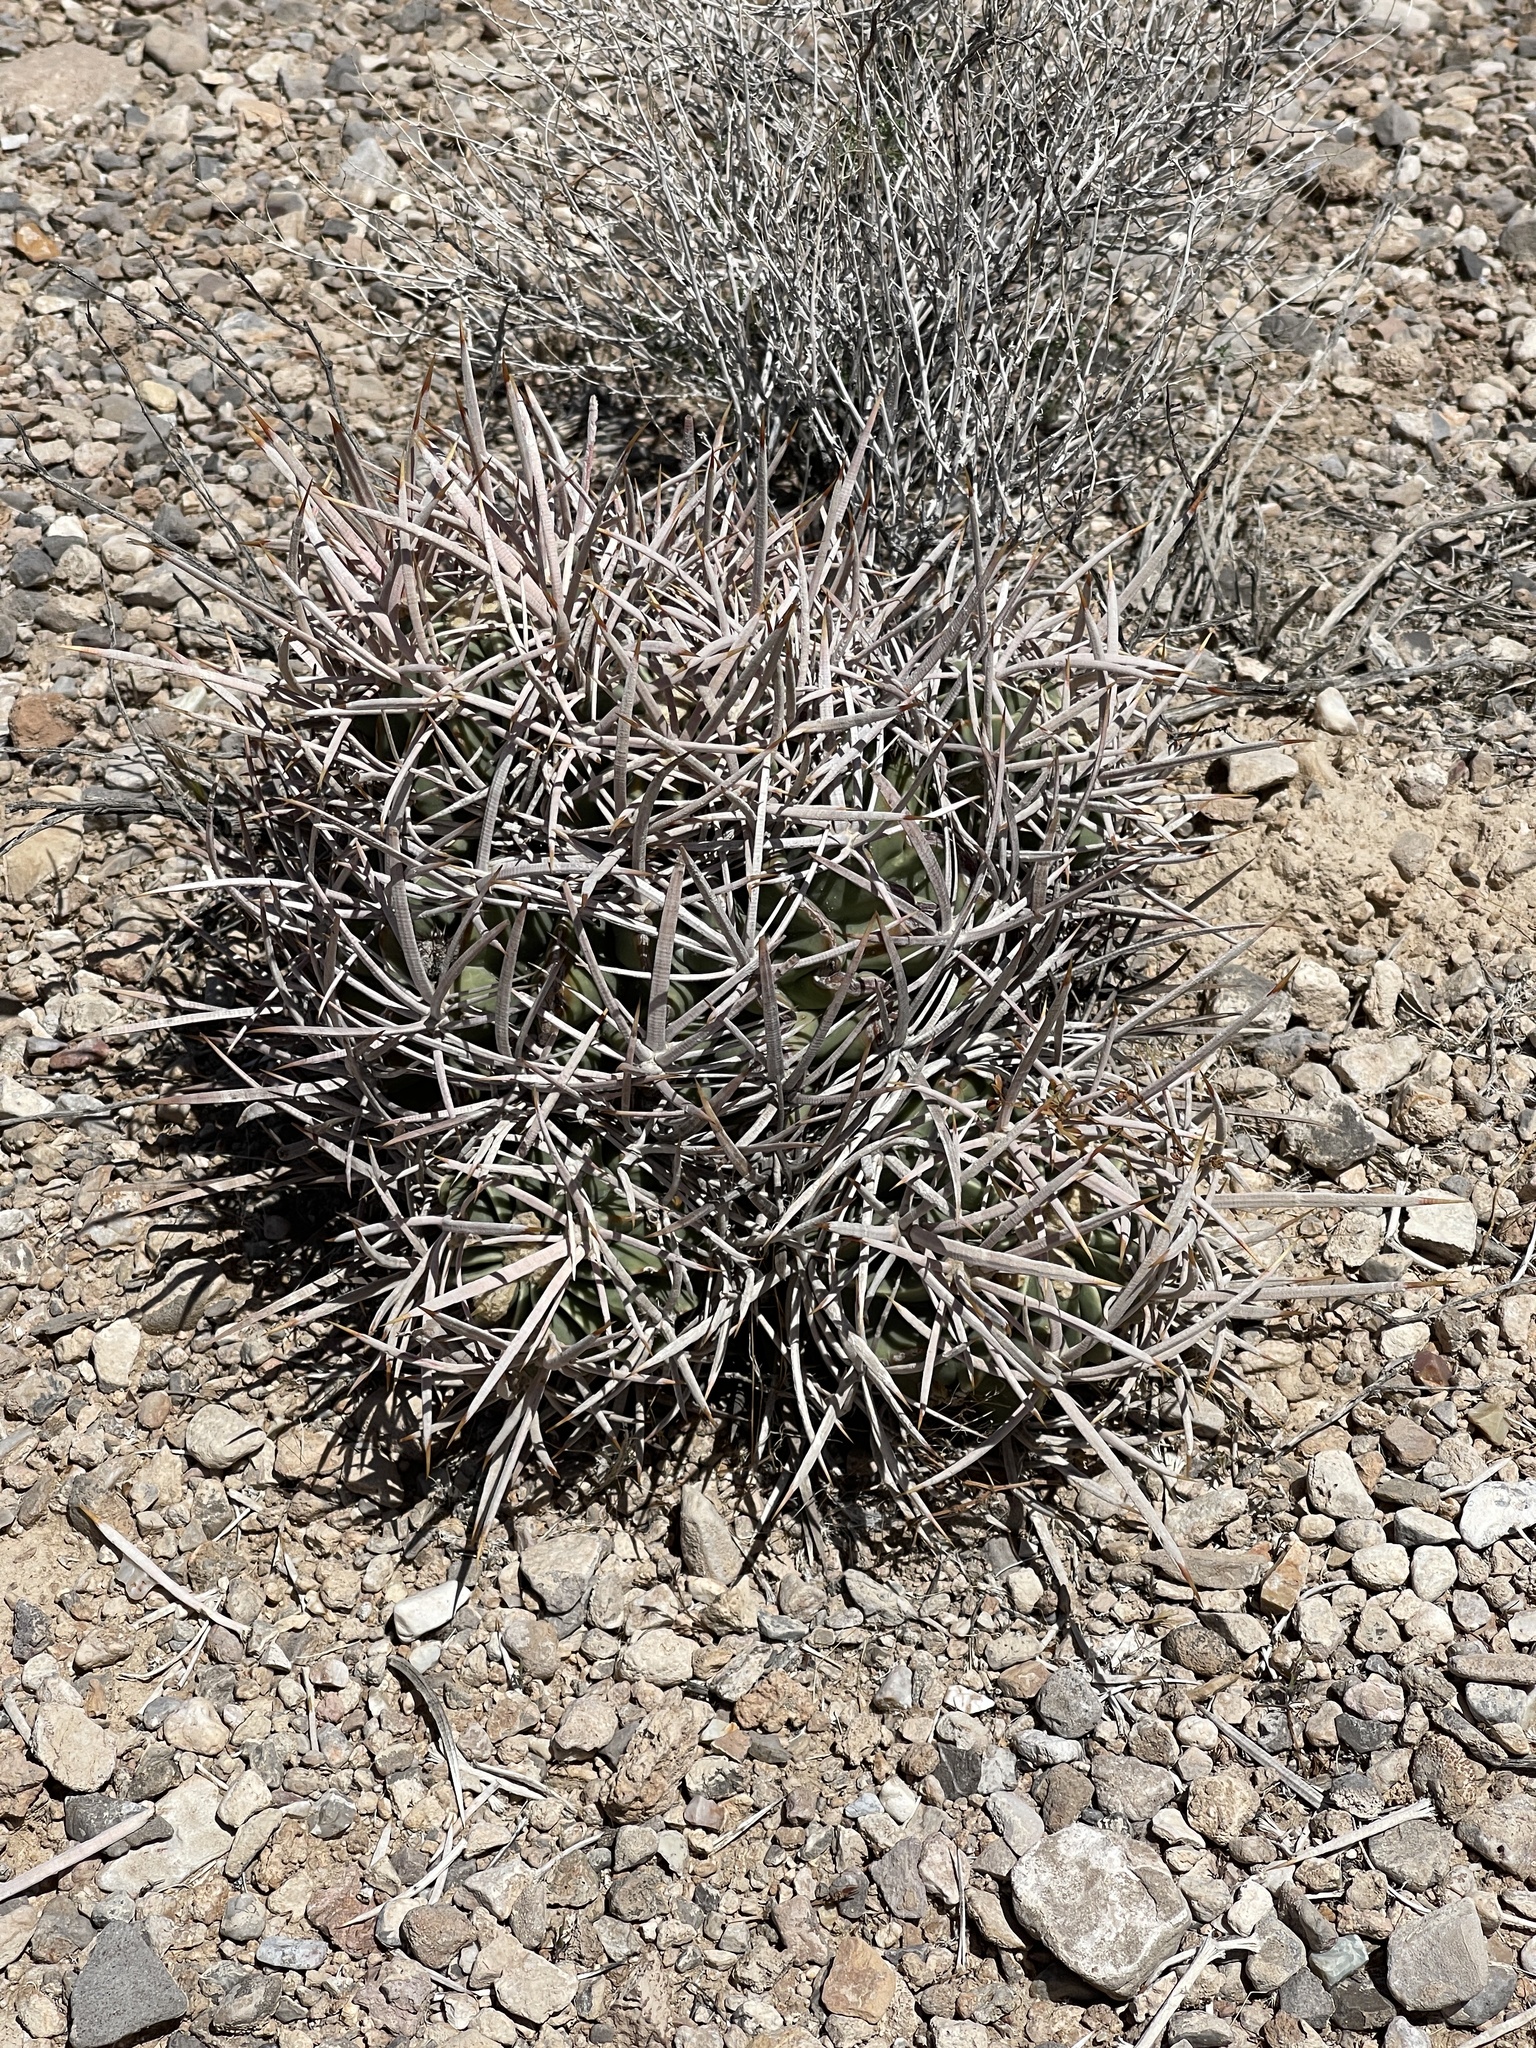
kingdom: Plantae
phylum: Tracheophyta
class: Magnoliopsida
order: Caryophyllales
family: Cactaceae
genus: Echinocactus
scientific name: Echinocactus polycephalus
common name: Cottontop cactus
